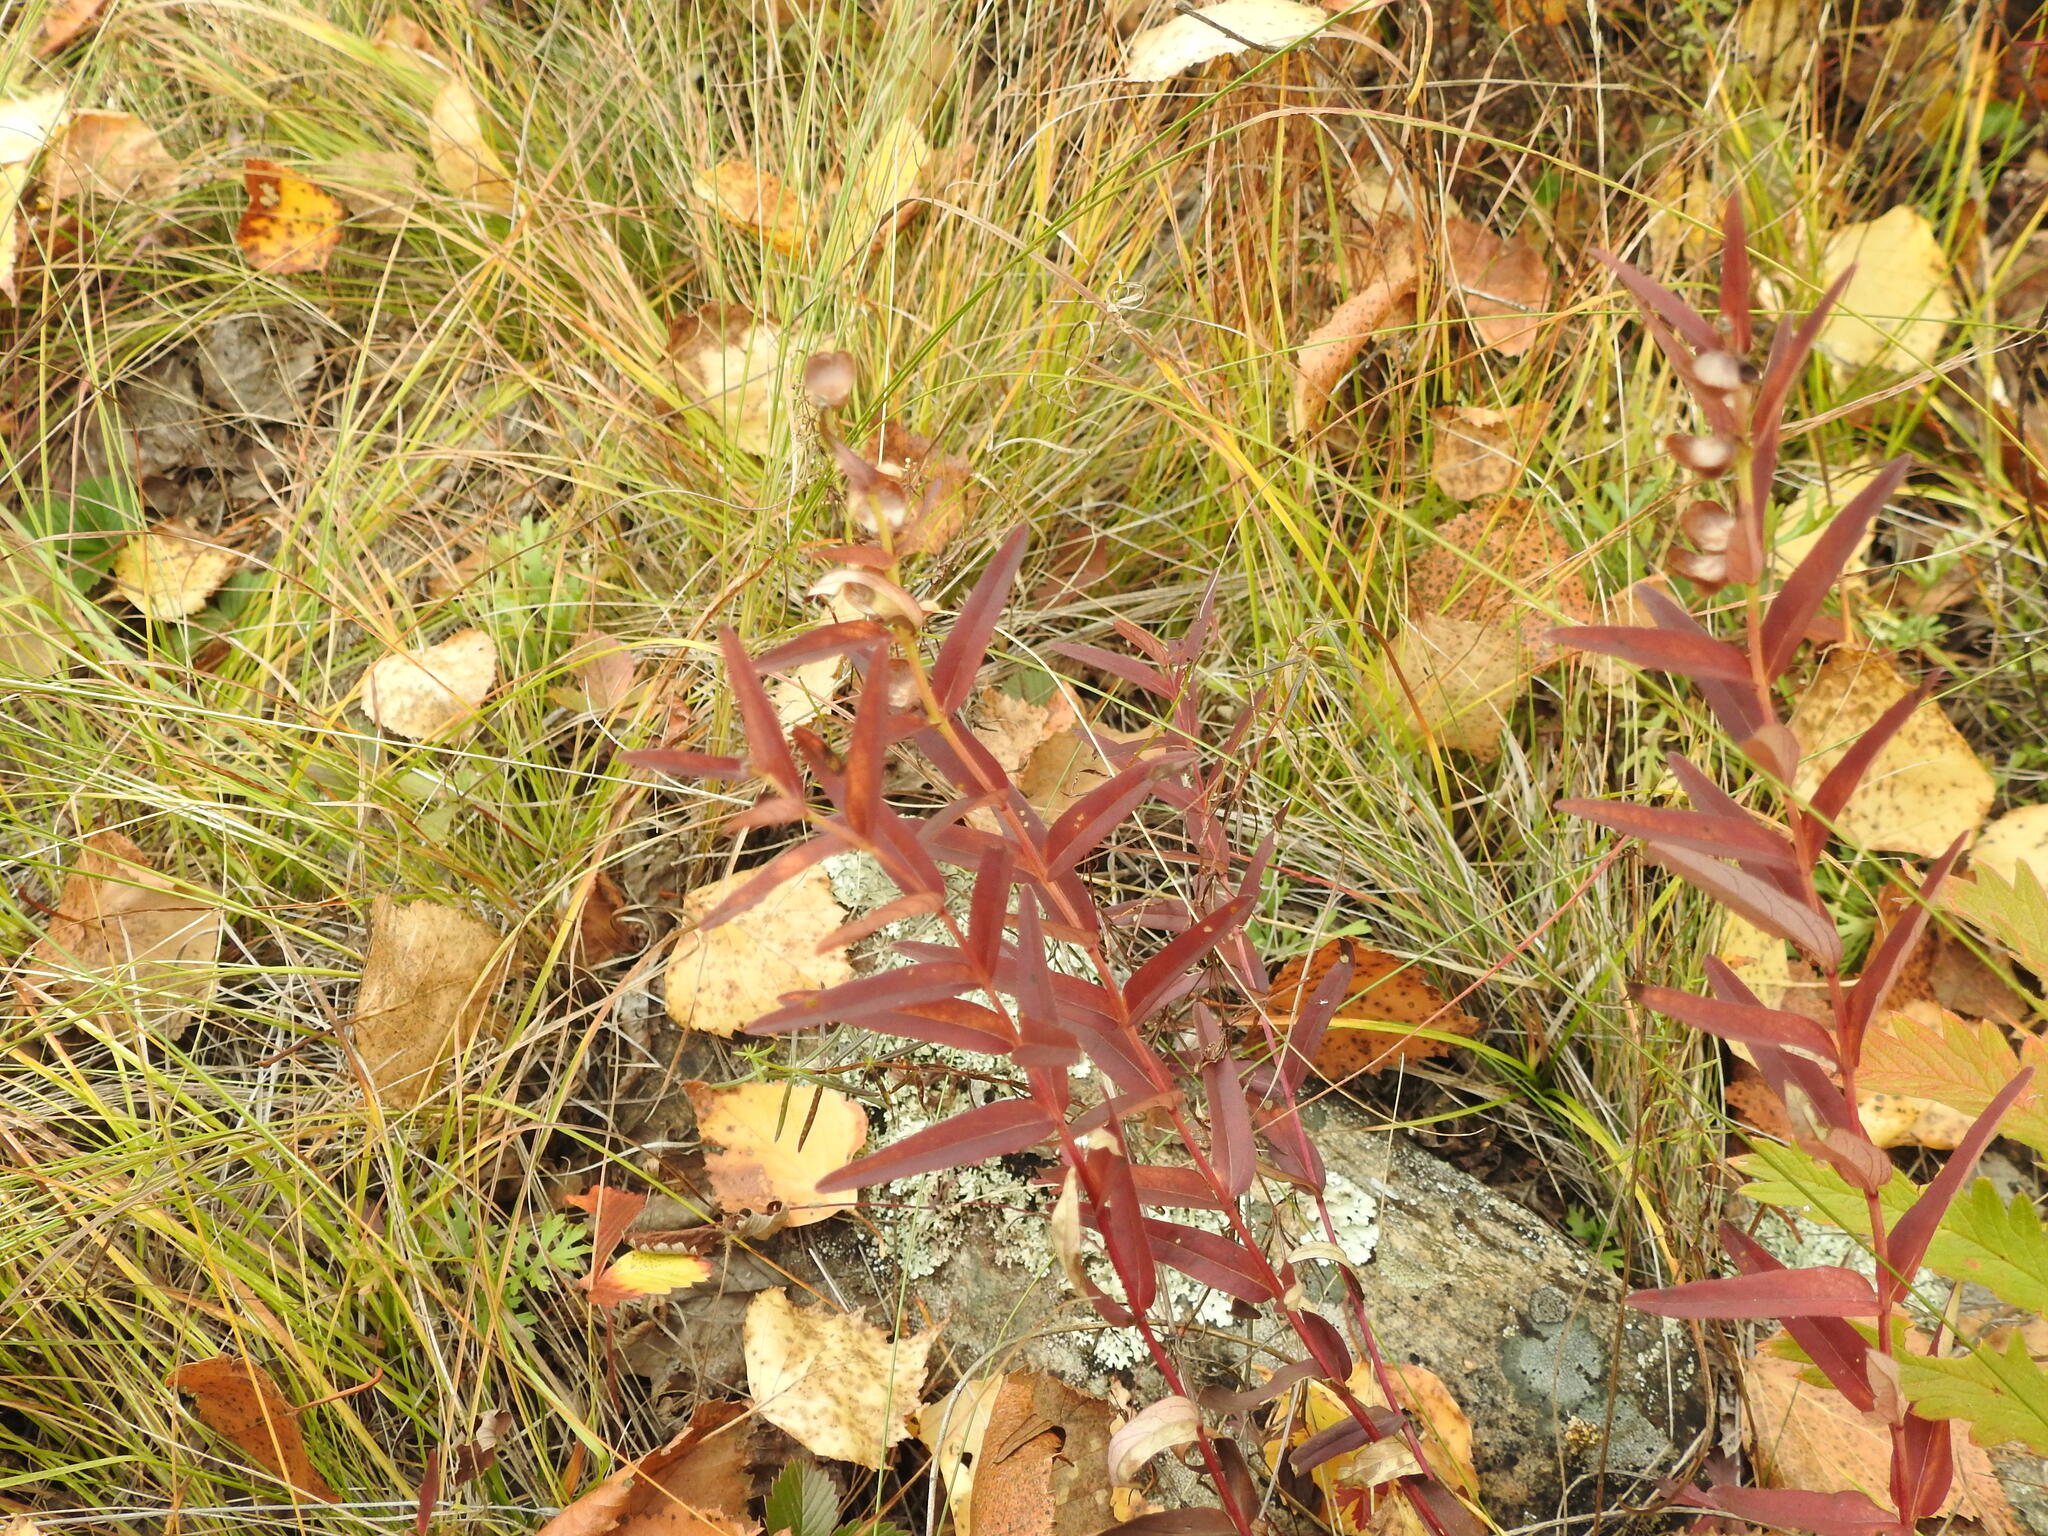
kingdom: Plantae
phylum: Tracheophyta
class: Magnoliopsida
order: Lamiales
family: Lamiaceae
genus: Scutellaria
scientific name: Scutellaria baicalensis
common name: Baikal skullcap
